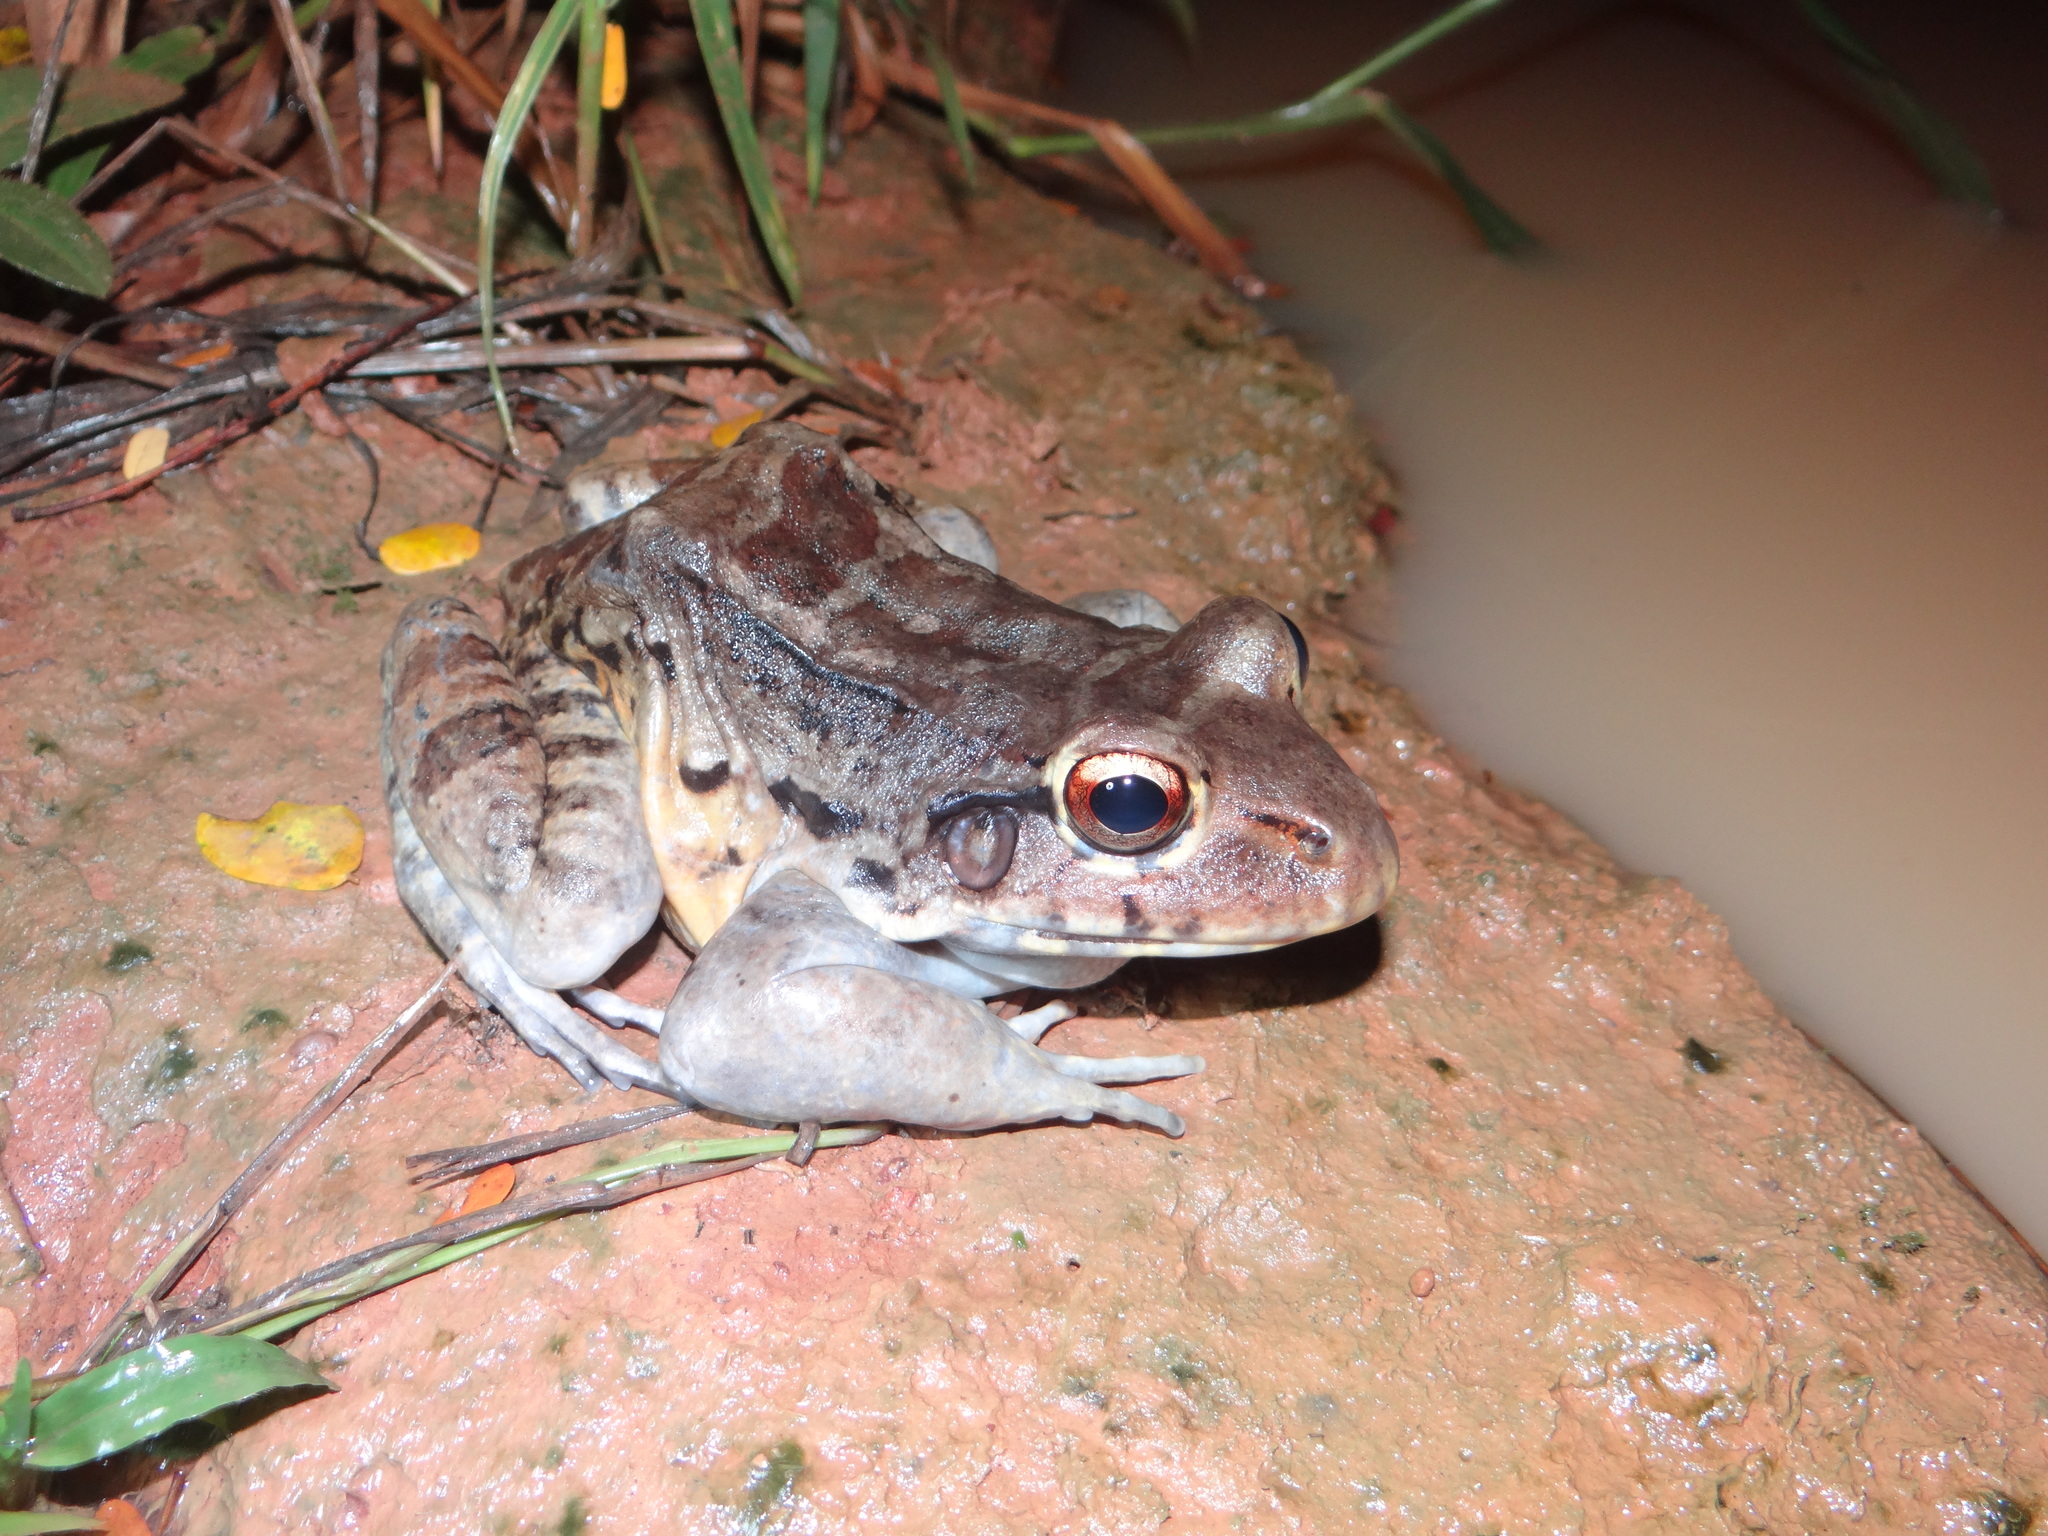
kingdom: Animalia
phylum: Chordata
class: Amphibia
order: Anura
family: Leptodactylidae
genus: Leptodactylus
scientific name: Leptodactylus knudseni
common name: Knudsen's frog
